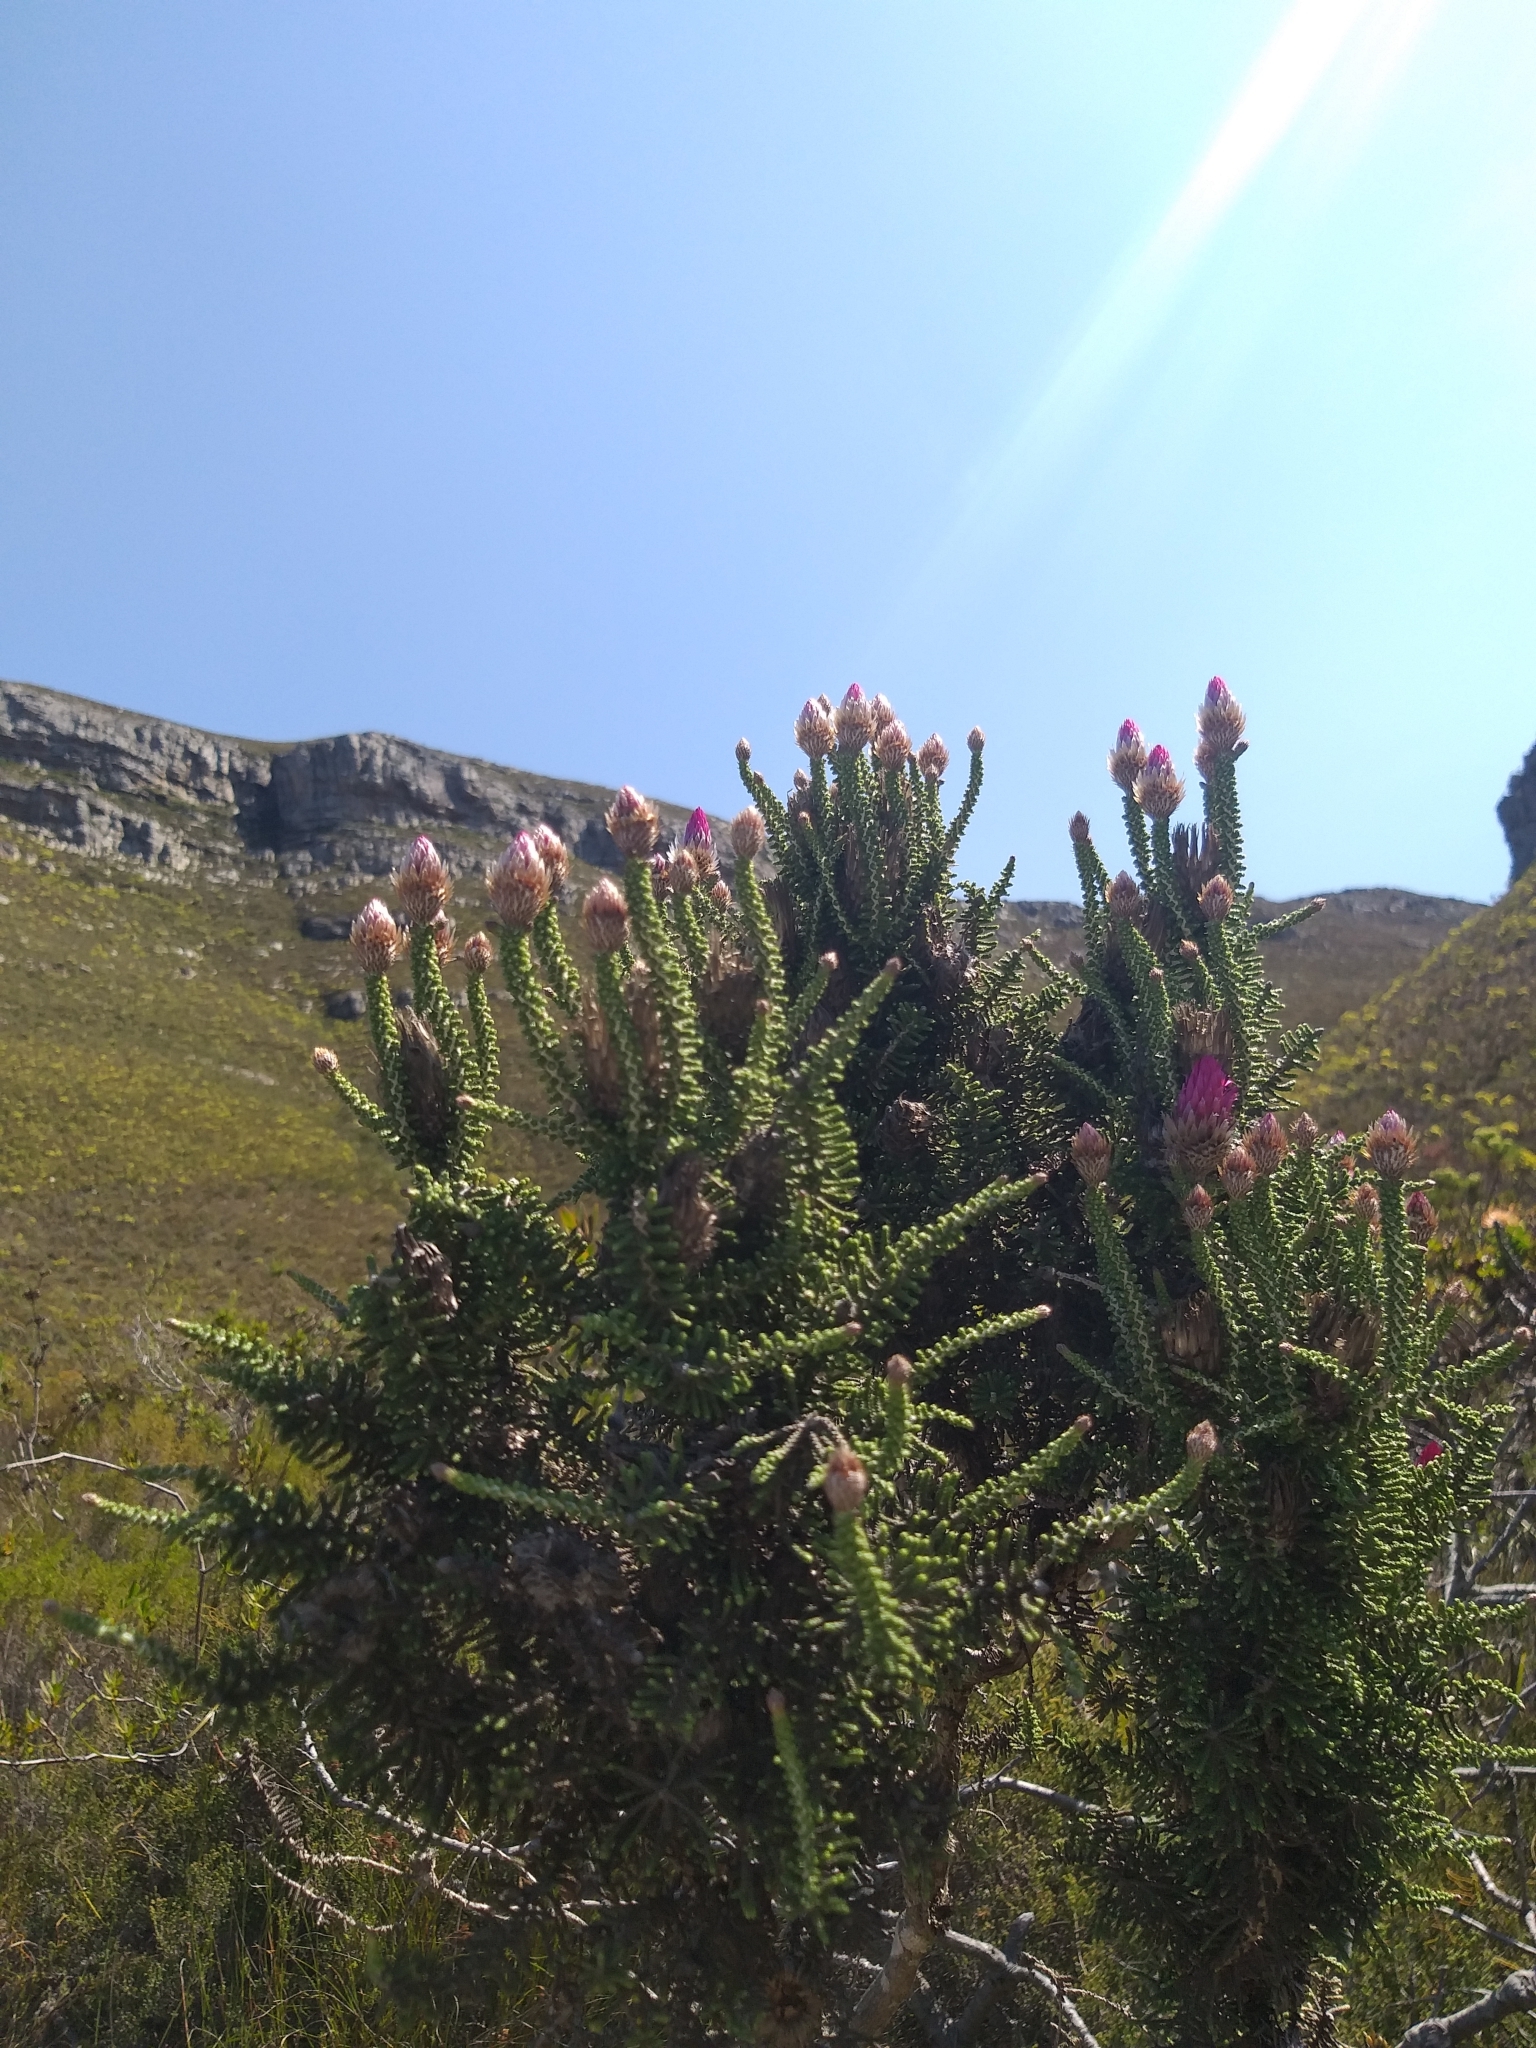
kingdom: Plantae
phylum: Tracheophyta
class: Magnoliopsida
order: Asterales
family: Asteraceae
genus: Phaenocoma
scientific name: Phaenocoma prolifera
